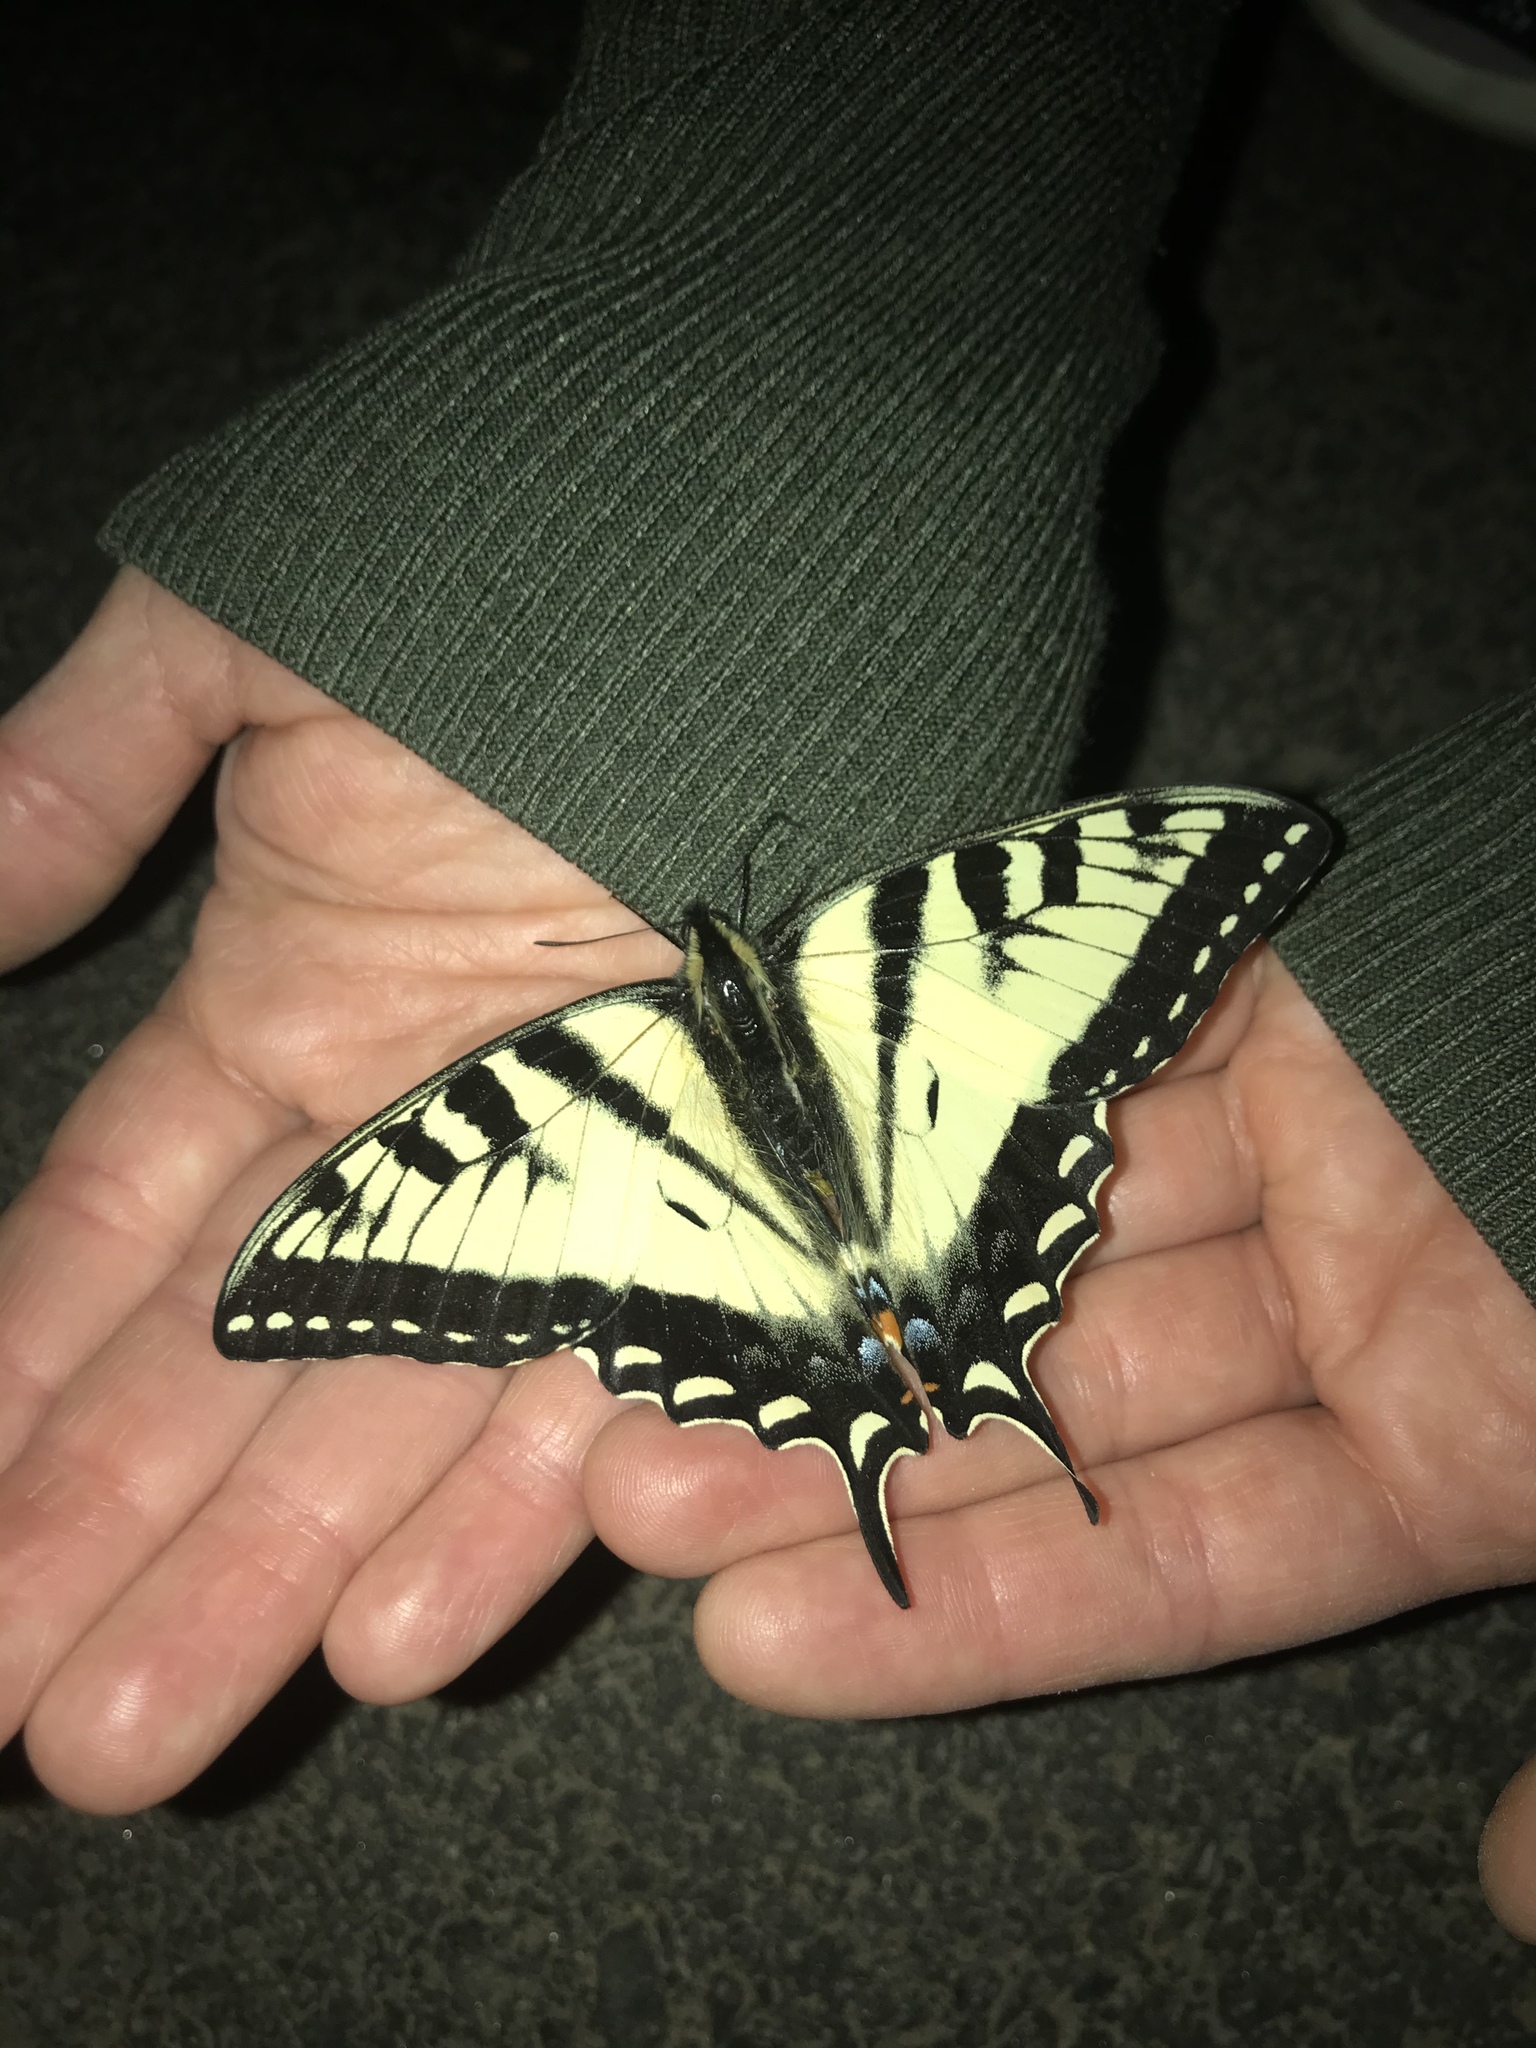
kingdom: Animalia
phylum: Arthropoda
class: Insecta
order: Lepidoptera
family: Papilionidae
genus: Papilio
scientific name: Papilio canadensis
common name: Canadian tiger swallowtail
